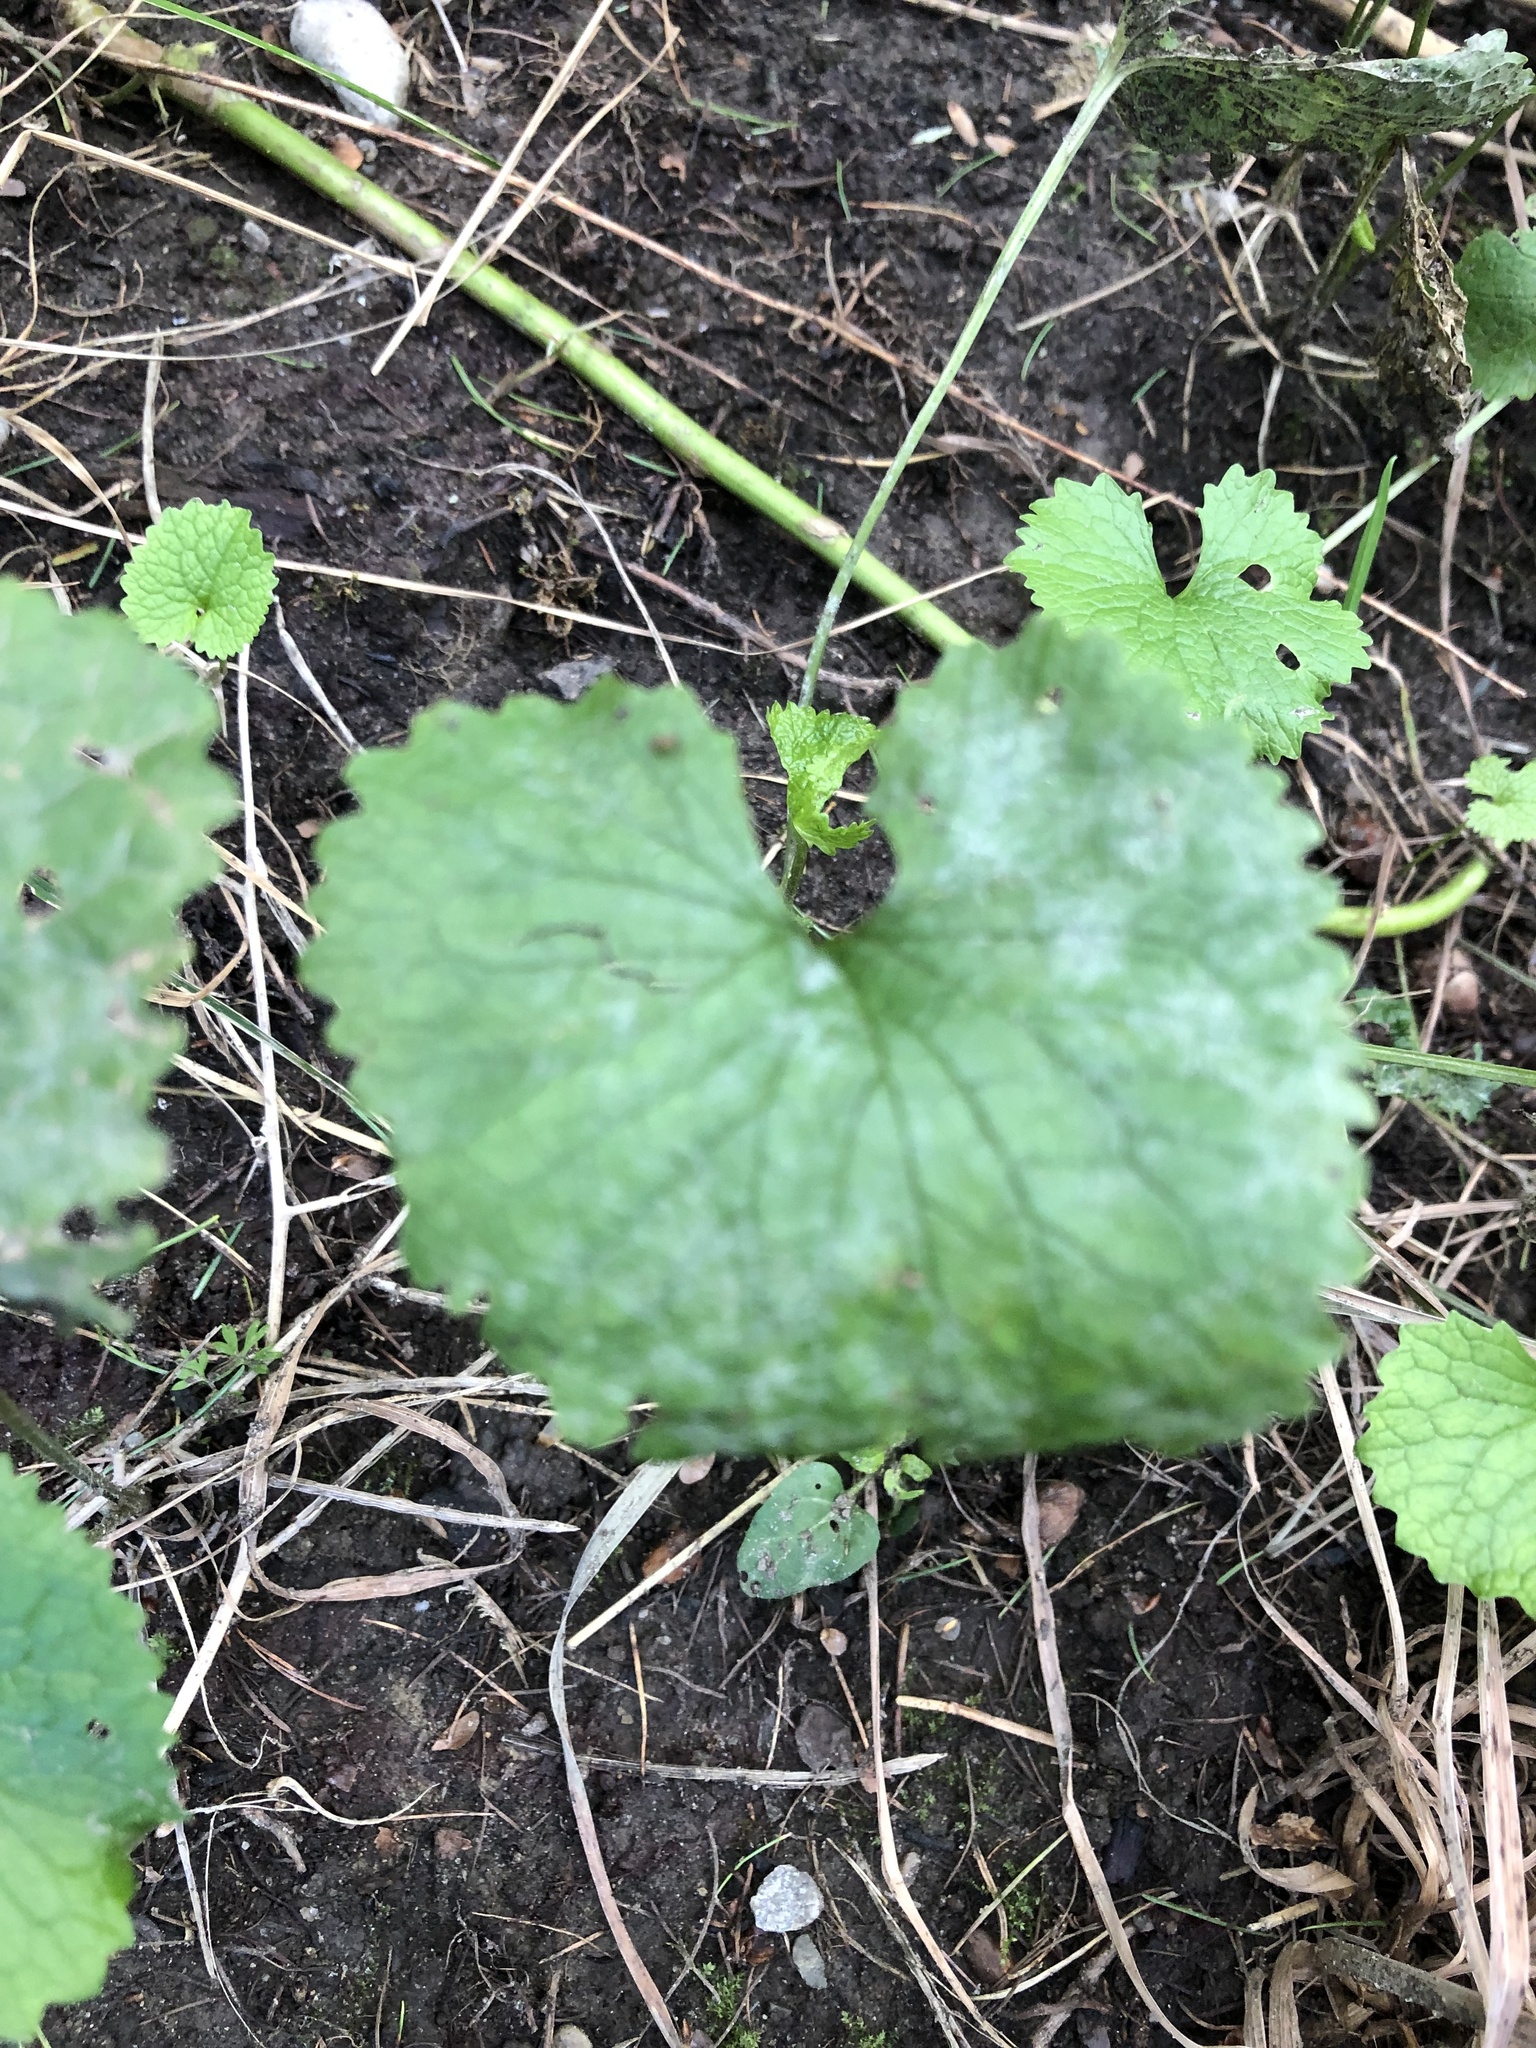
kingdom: Plantae
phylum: Tracheophyta
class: Magnoliopsida
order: Brassicales
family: Brassicaceae
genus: Alliaria
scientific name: Alliaria petiolata
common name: Garlic mustard
